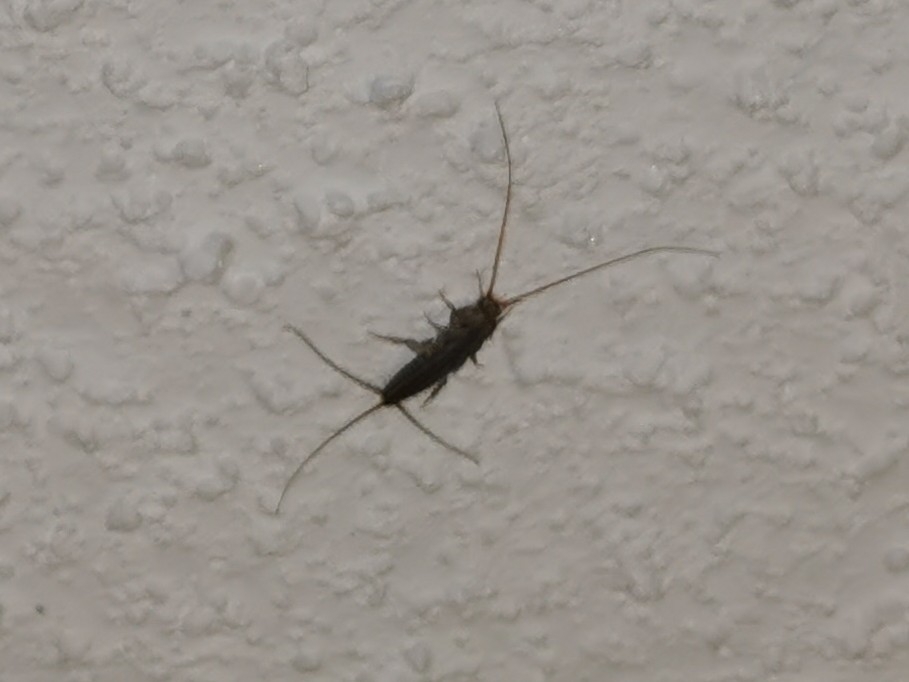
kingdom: Animalia
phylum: Arthropoda
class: Insecta
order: Zygentoma
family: Lepismatidae
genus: Ctenolepisma
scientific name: Ctenolepisma lineata
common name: Four-lined silverfish
